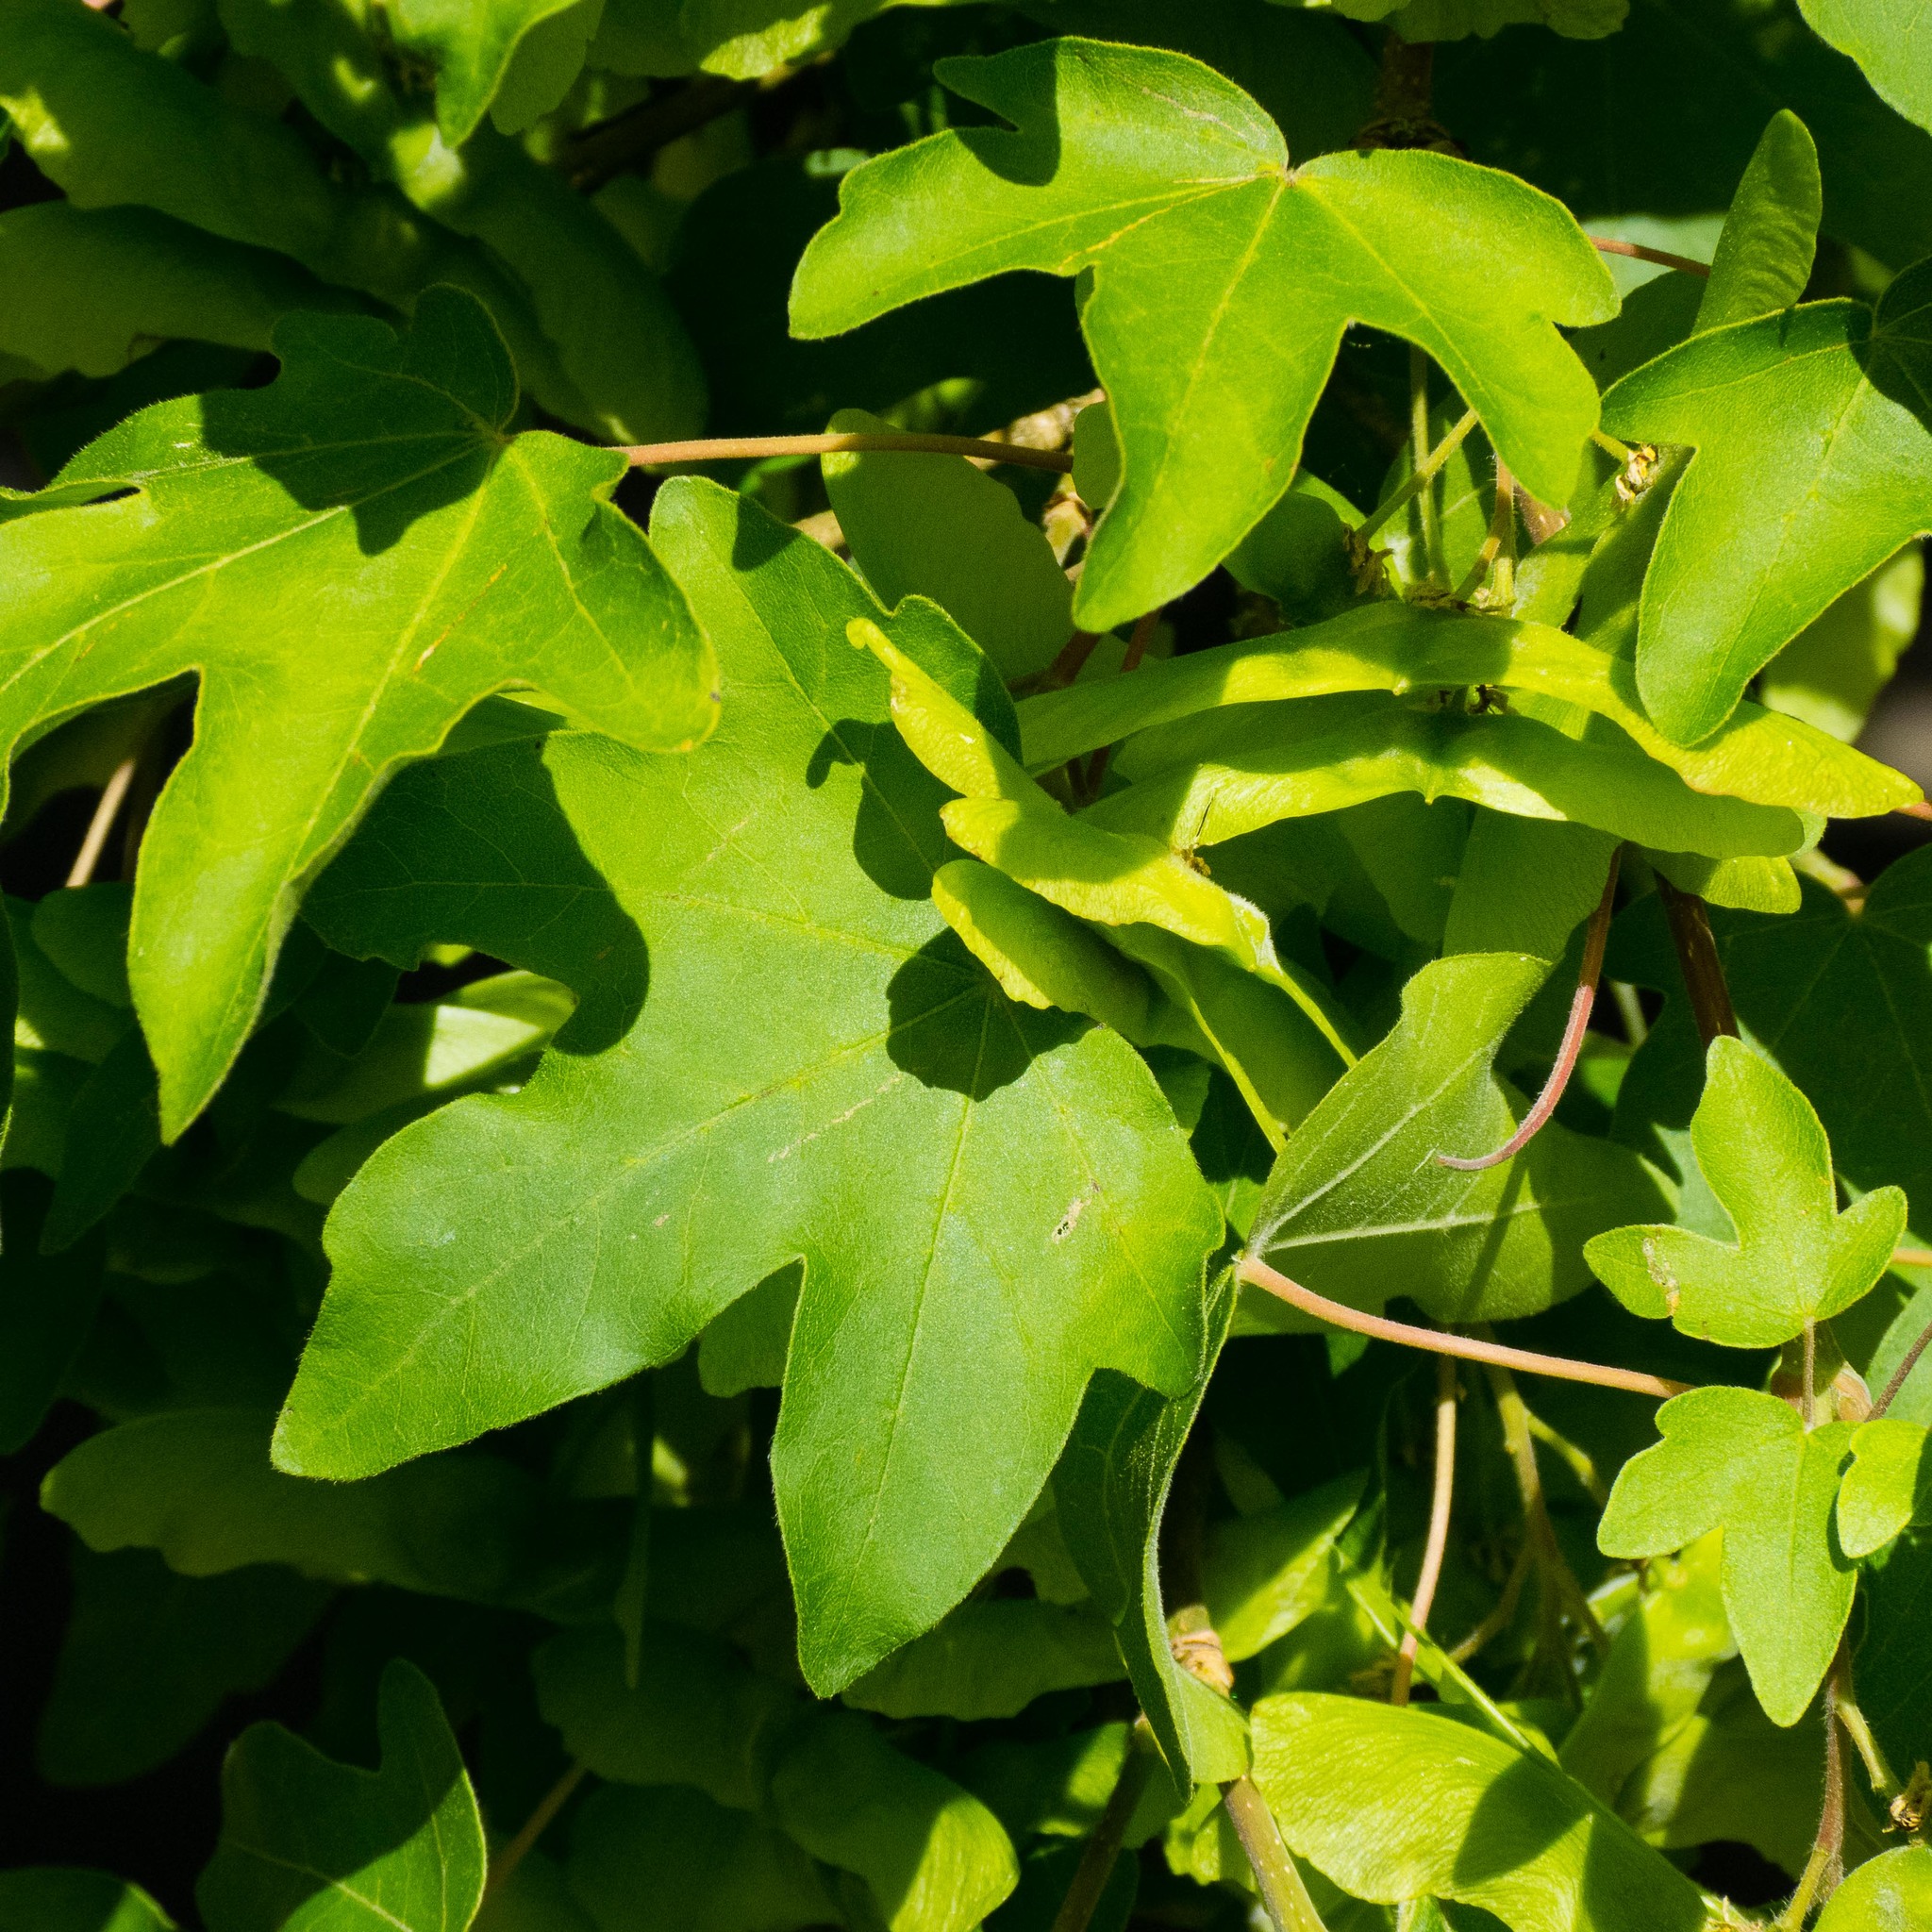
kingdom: Plantae
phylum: Tracheophyta
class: Magnoliopsida
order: Sapindales
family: Sapindaceae
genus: Acer
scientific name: Acer campestre
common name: Field maple
